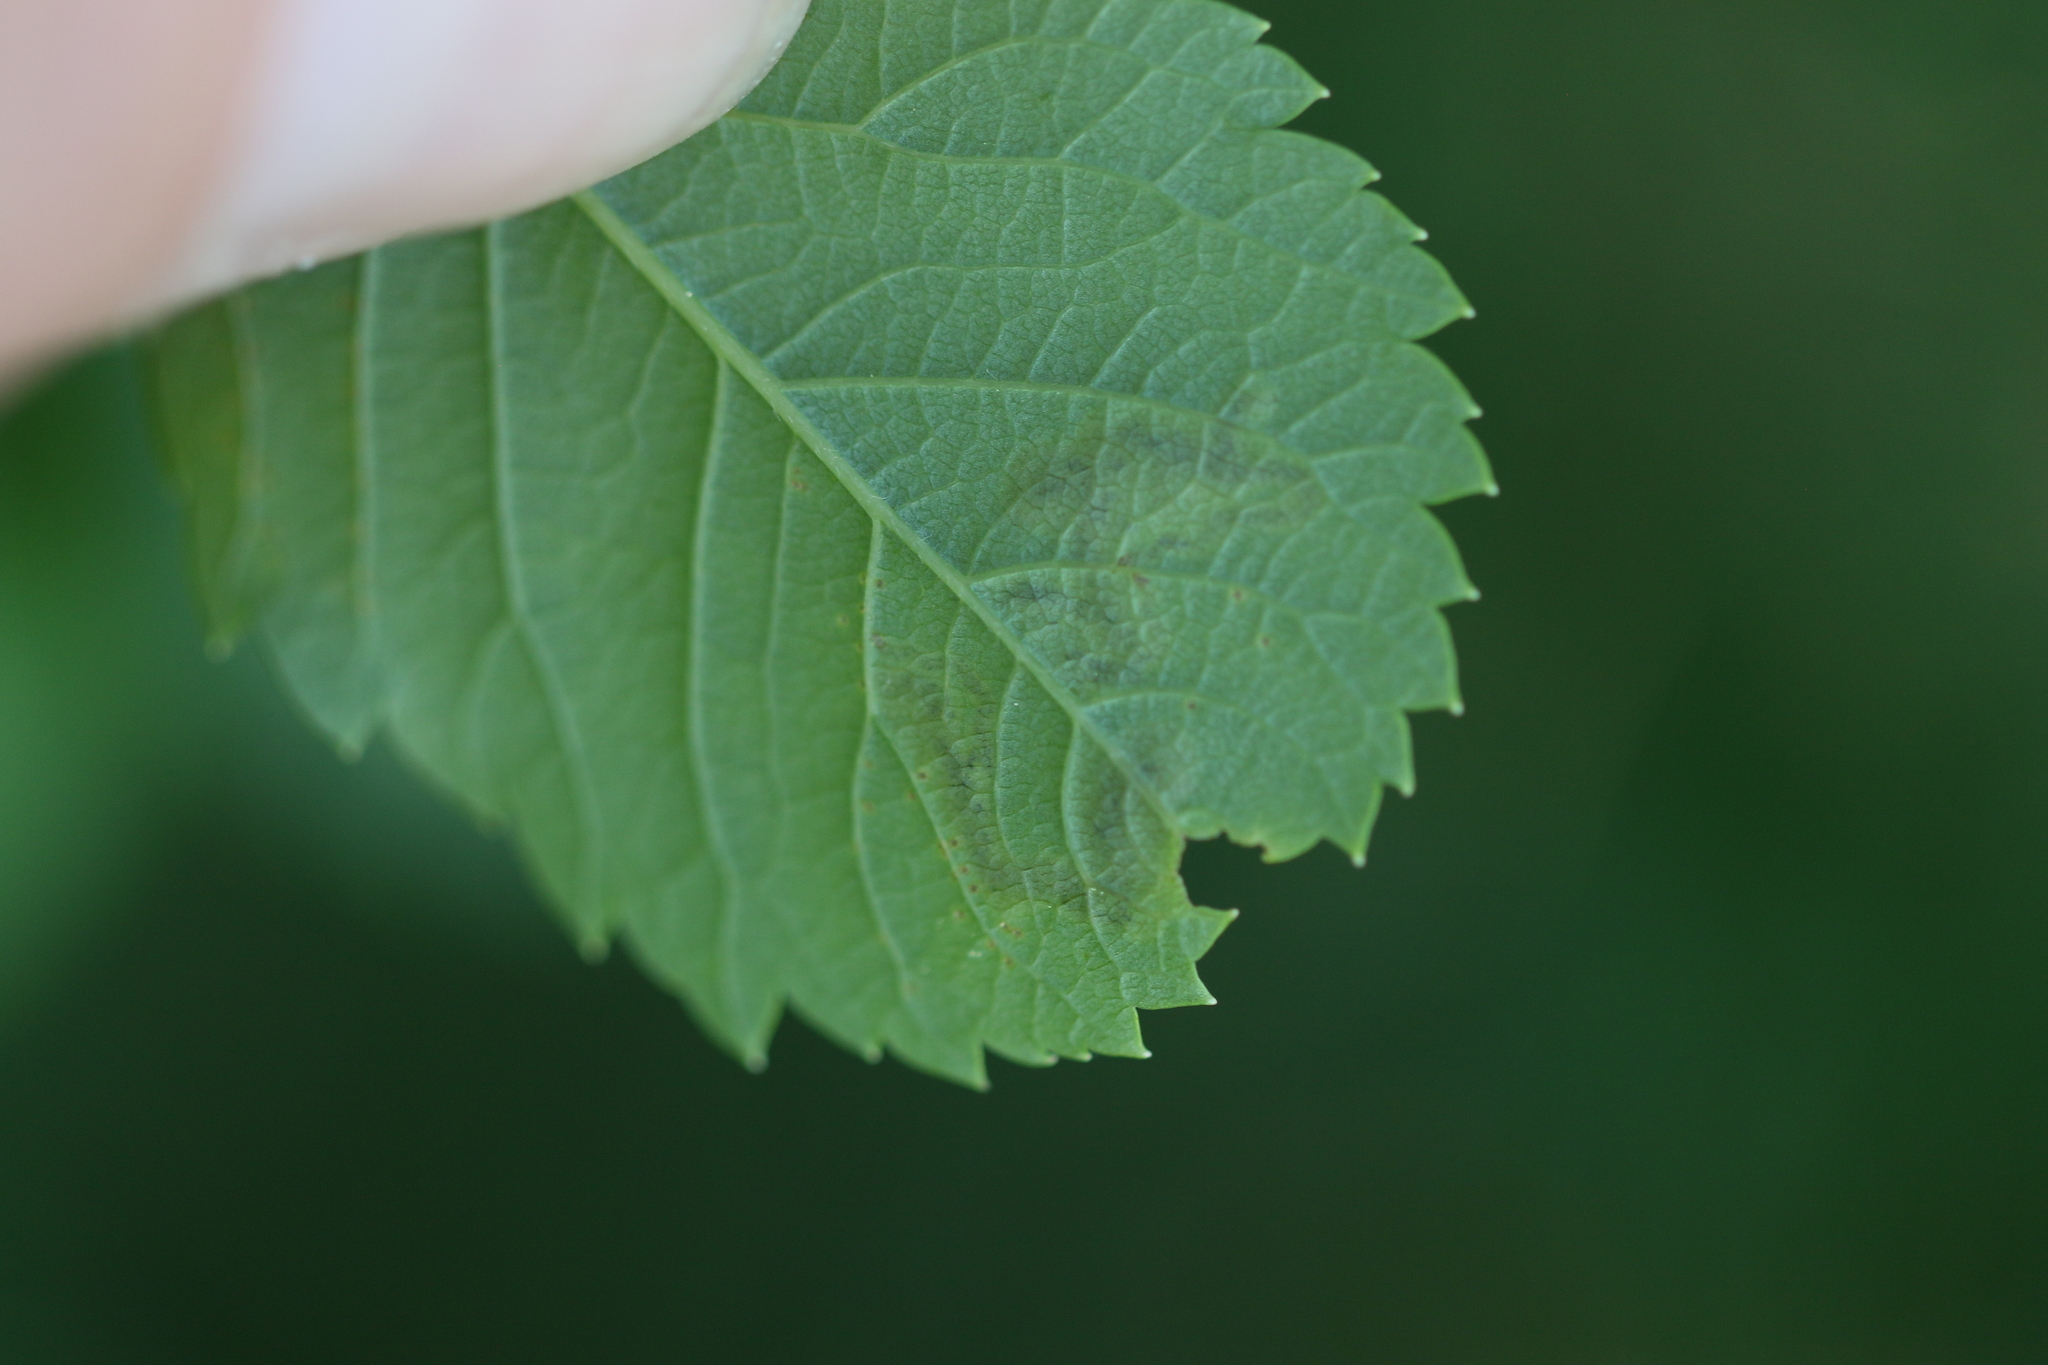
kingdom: Animalia
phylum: Arthropoda
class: Insecta
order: Diptera
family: Agromyzidae
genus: Agromyza
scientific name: Agromyza valdorensis
